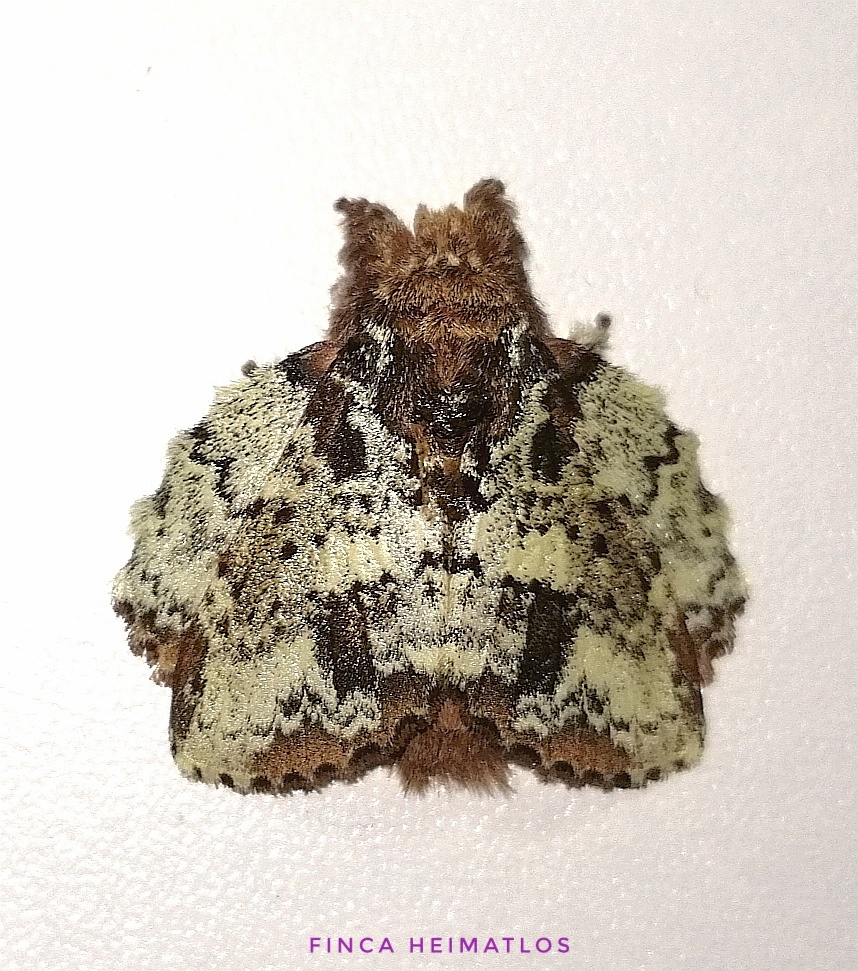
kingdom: Animalia
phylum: Arthropoda
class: Insecta
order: Lepidoptera
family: Lasiocampidae
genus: Euglyphis
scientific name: Euglyphis pira
